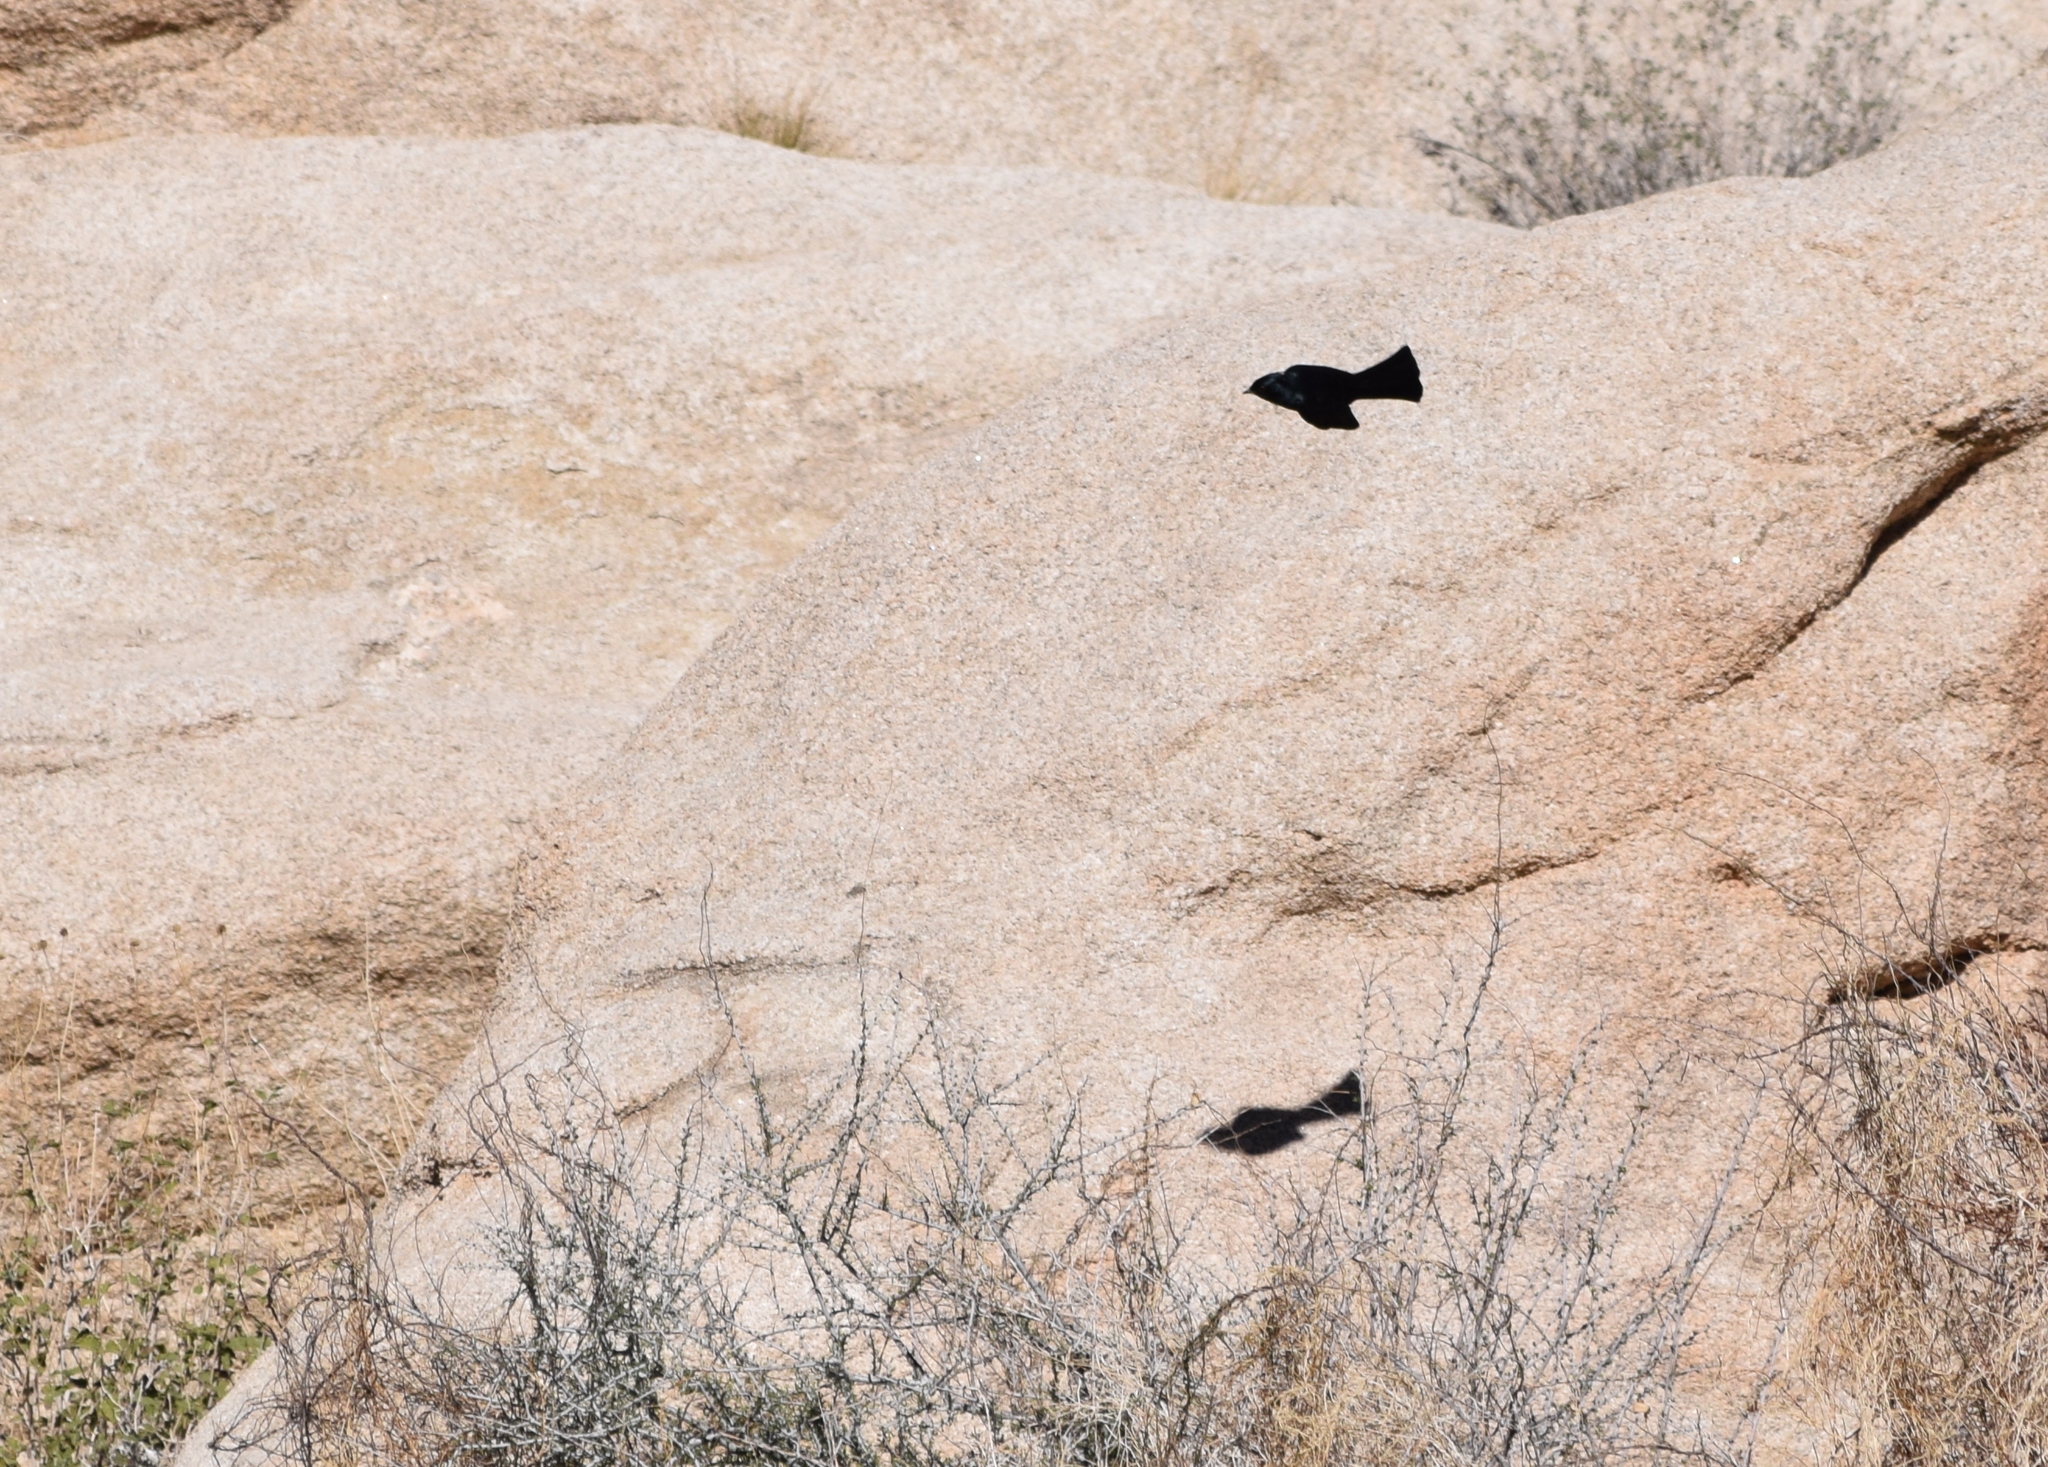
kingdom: Animalia
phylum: Chordata
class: Aves
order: Passeriformes
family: Ptilogonatidae
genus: Phainopepla
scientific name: Phainopepla nitens
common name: Phainopepla
